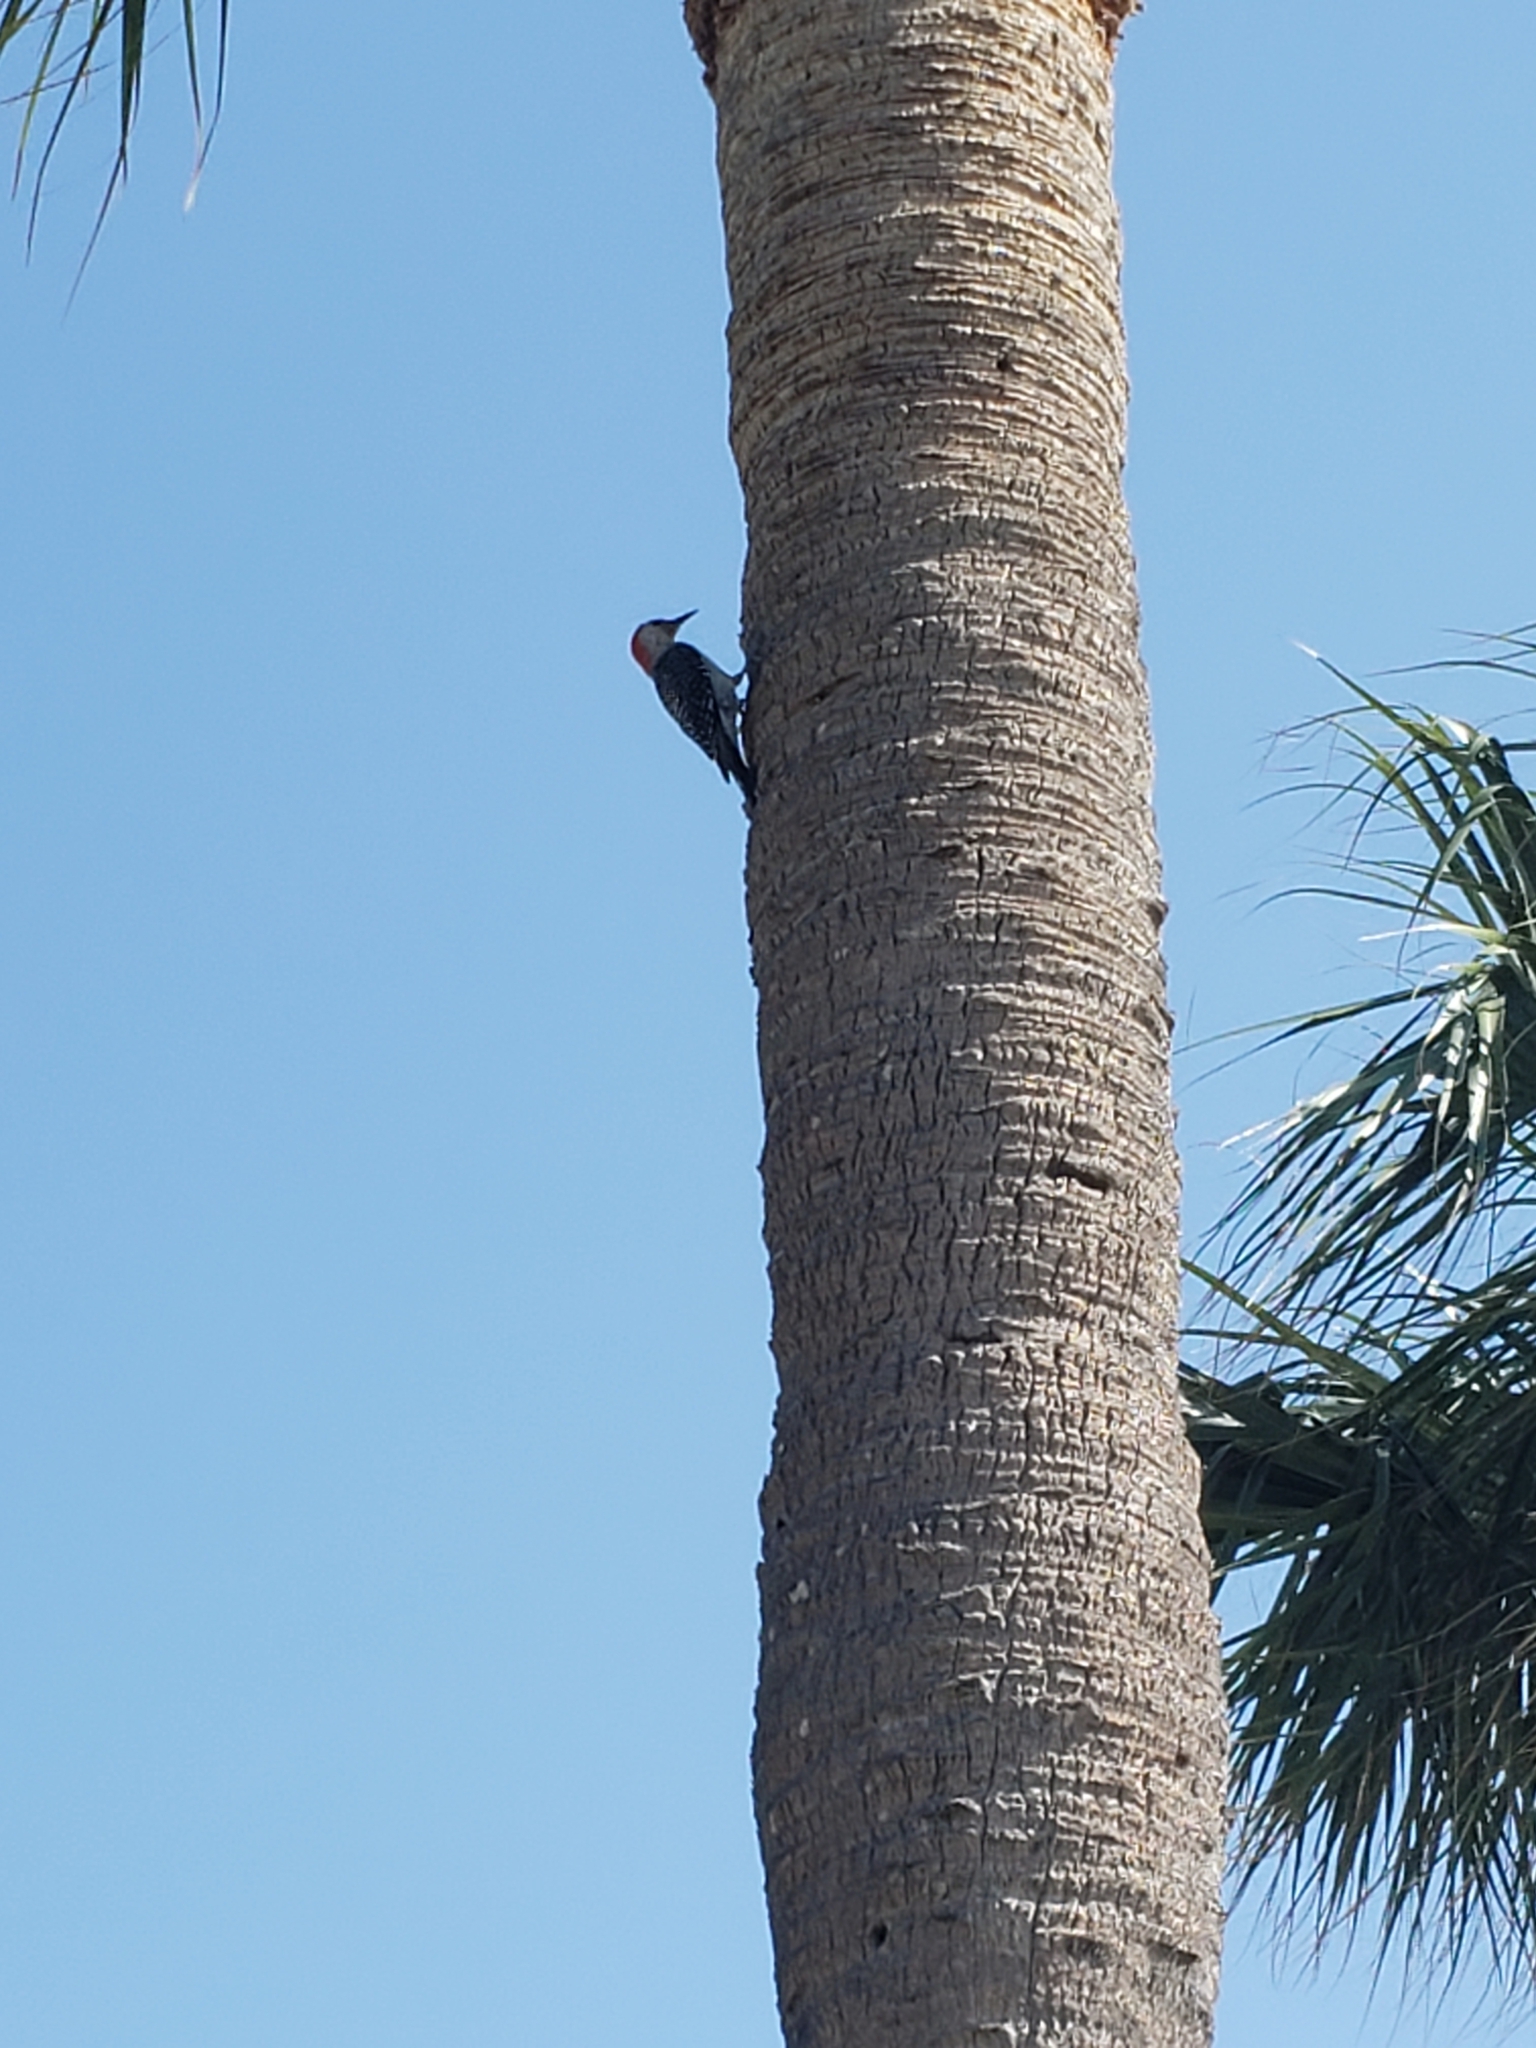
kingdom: Animalia
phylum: Chordata
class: Aves
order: Piciformes
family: Picidae
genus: Melanerpes
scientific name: Melanerpes carolinus
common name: Red-bellied woodpecker
